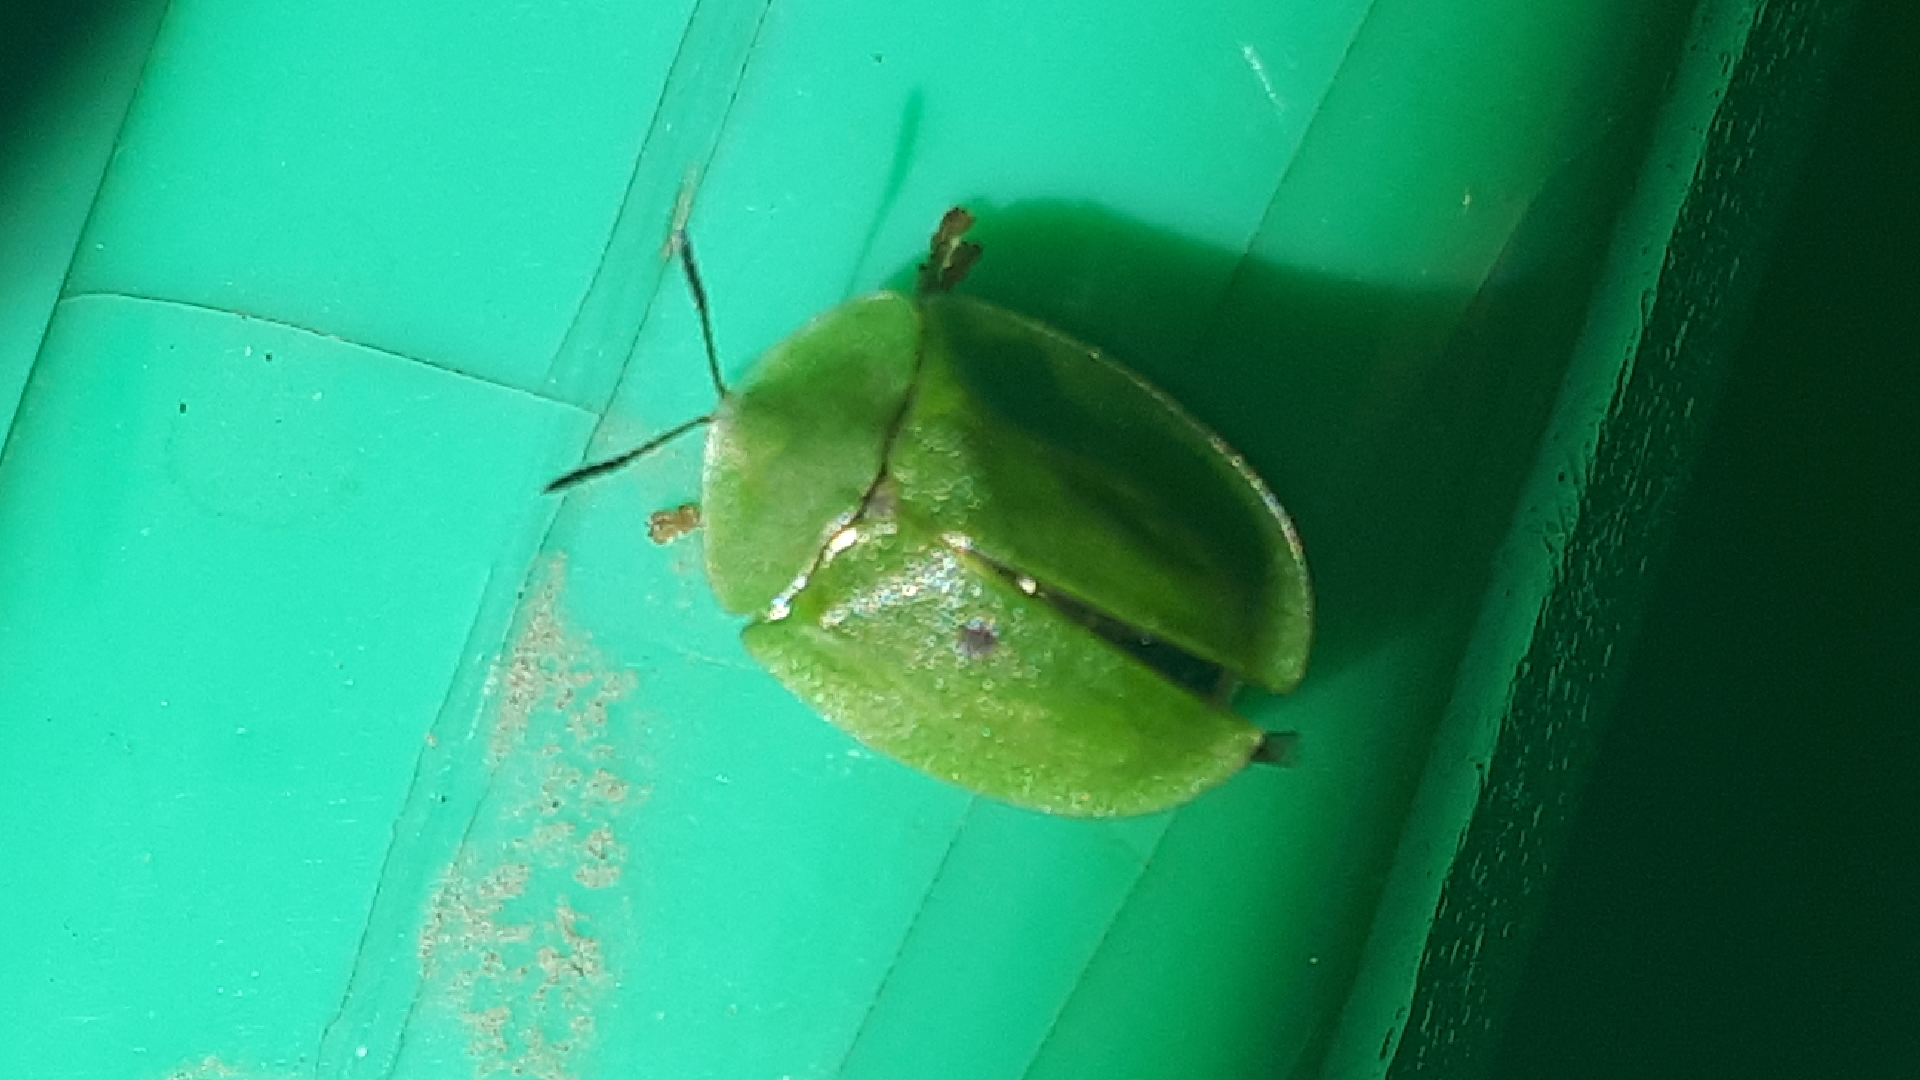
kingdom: Animalia
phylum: Arthropoda
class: Insecta
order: Coleoptera
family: Chrysomelidae
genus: Cassida
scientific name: Cassida viridis
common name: Green tortoise beetle
